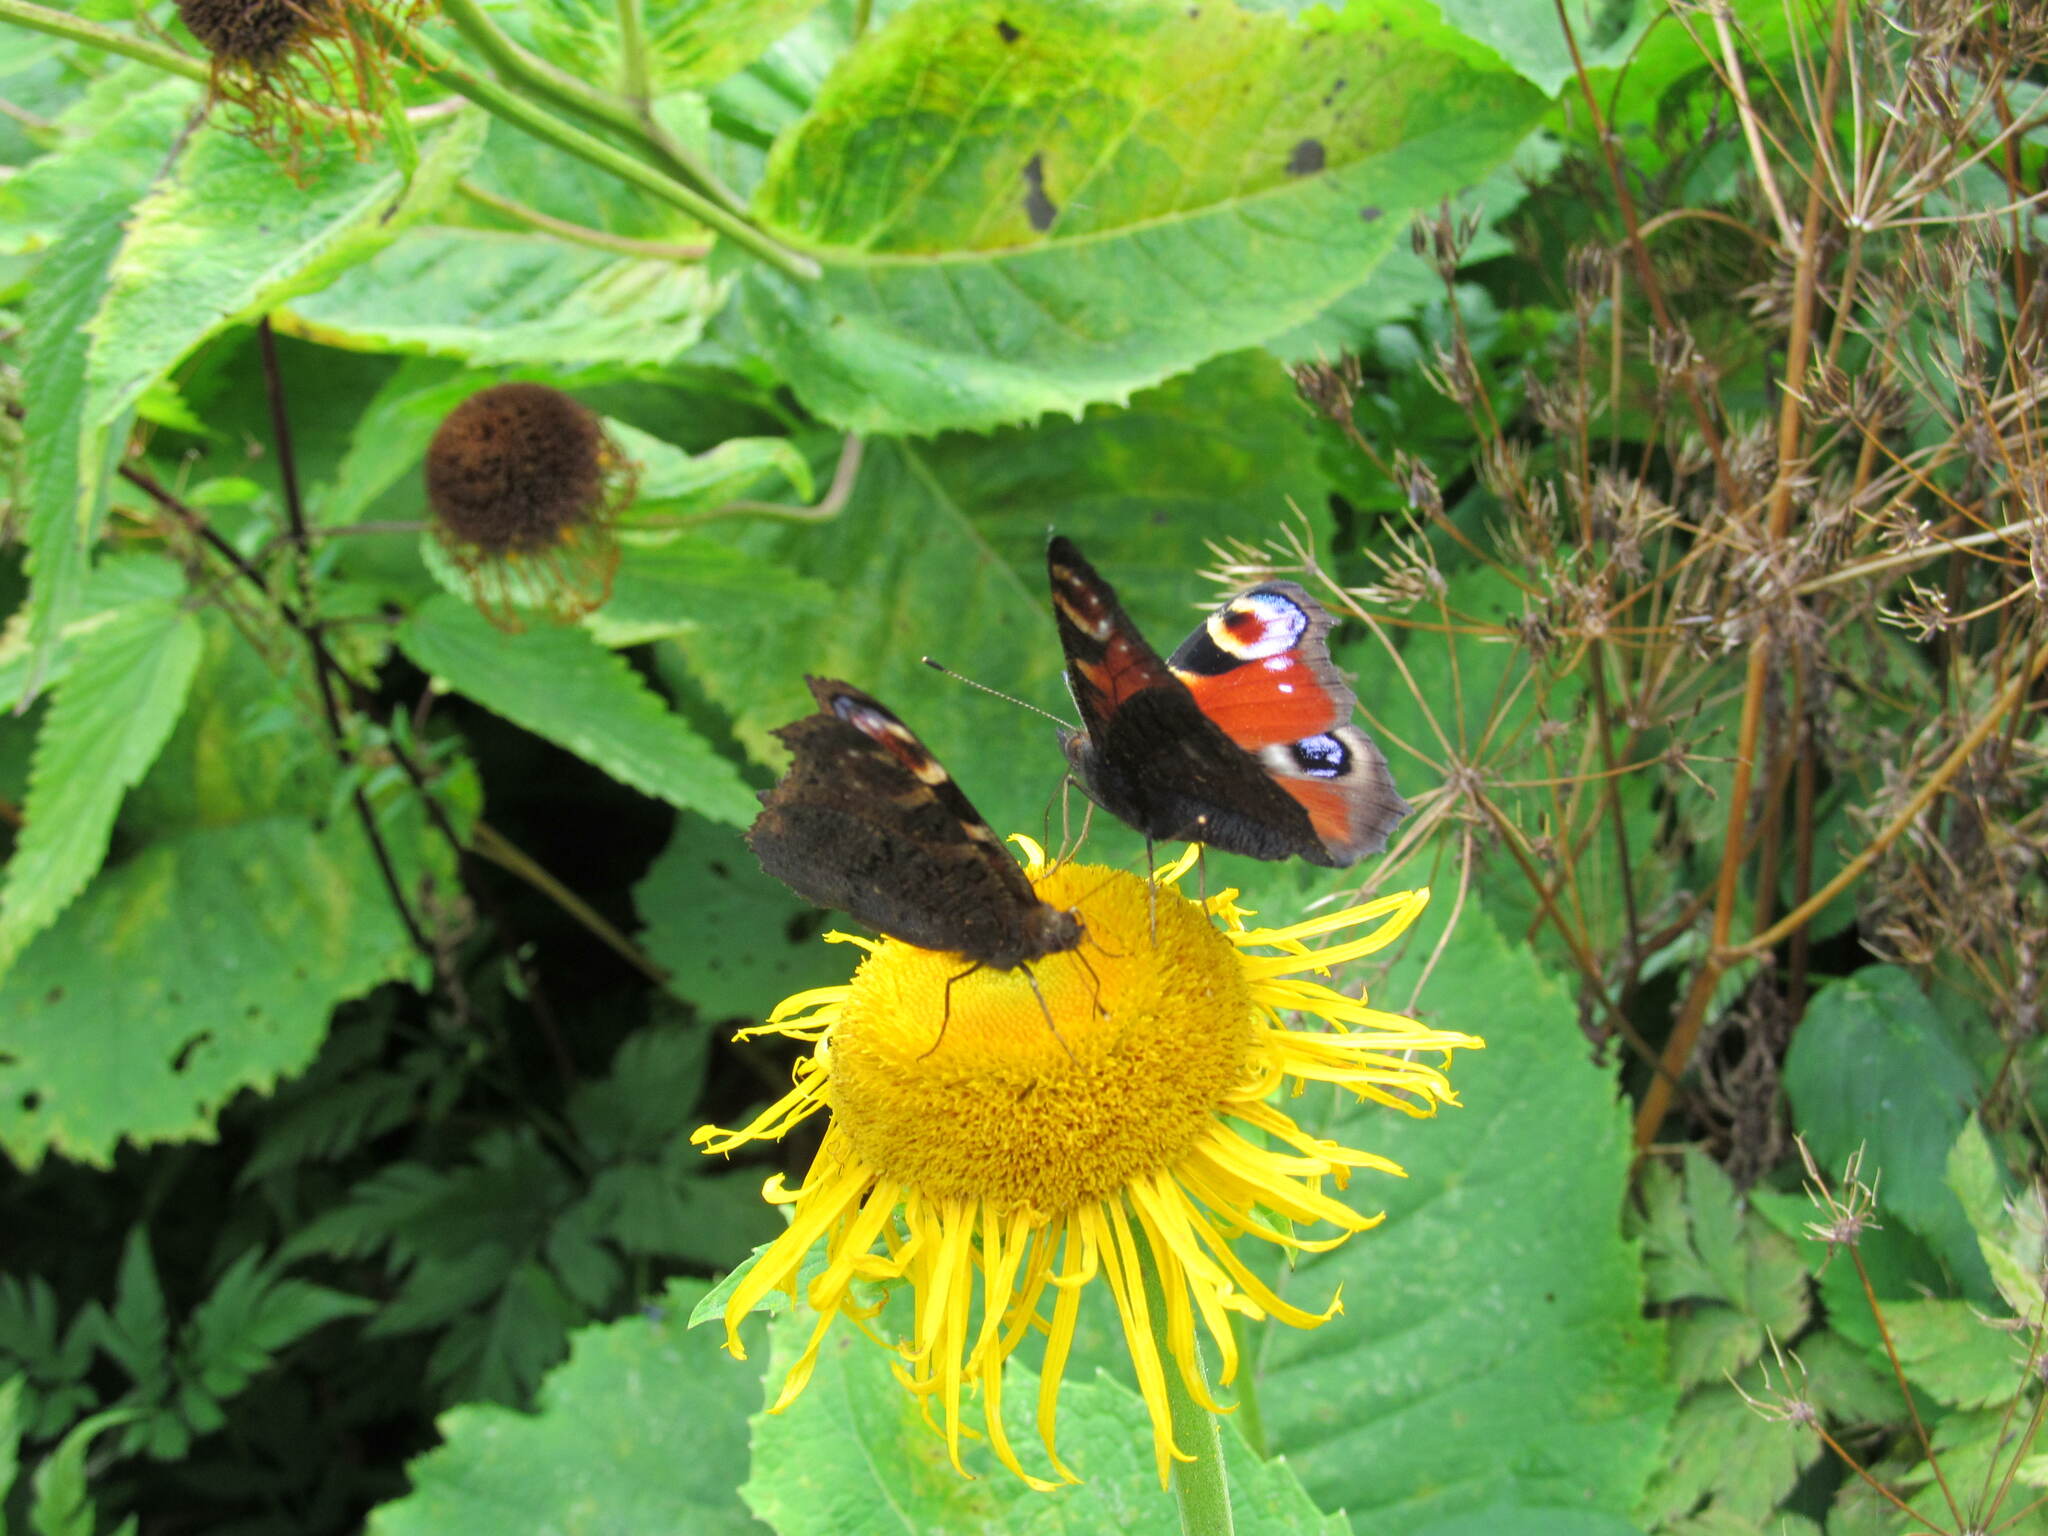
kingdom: Animalia
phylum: Arthropoda
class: Insecta
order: Lepidoptera
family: Nymphalidae
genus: Aglais
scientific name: Aglais io
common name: Peacock
